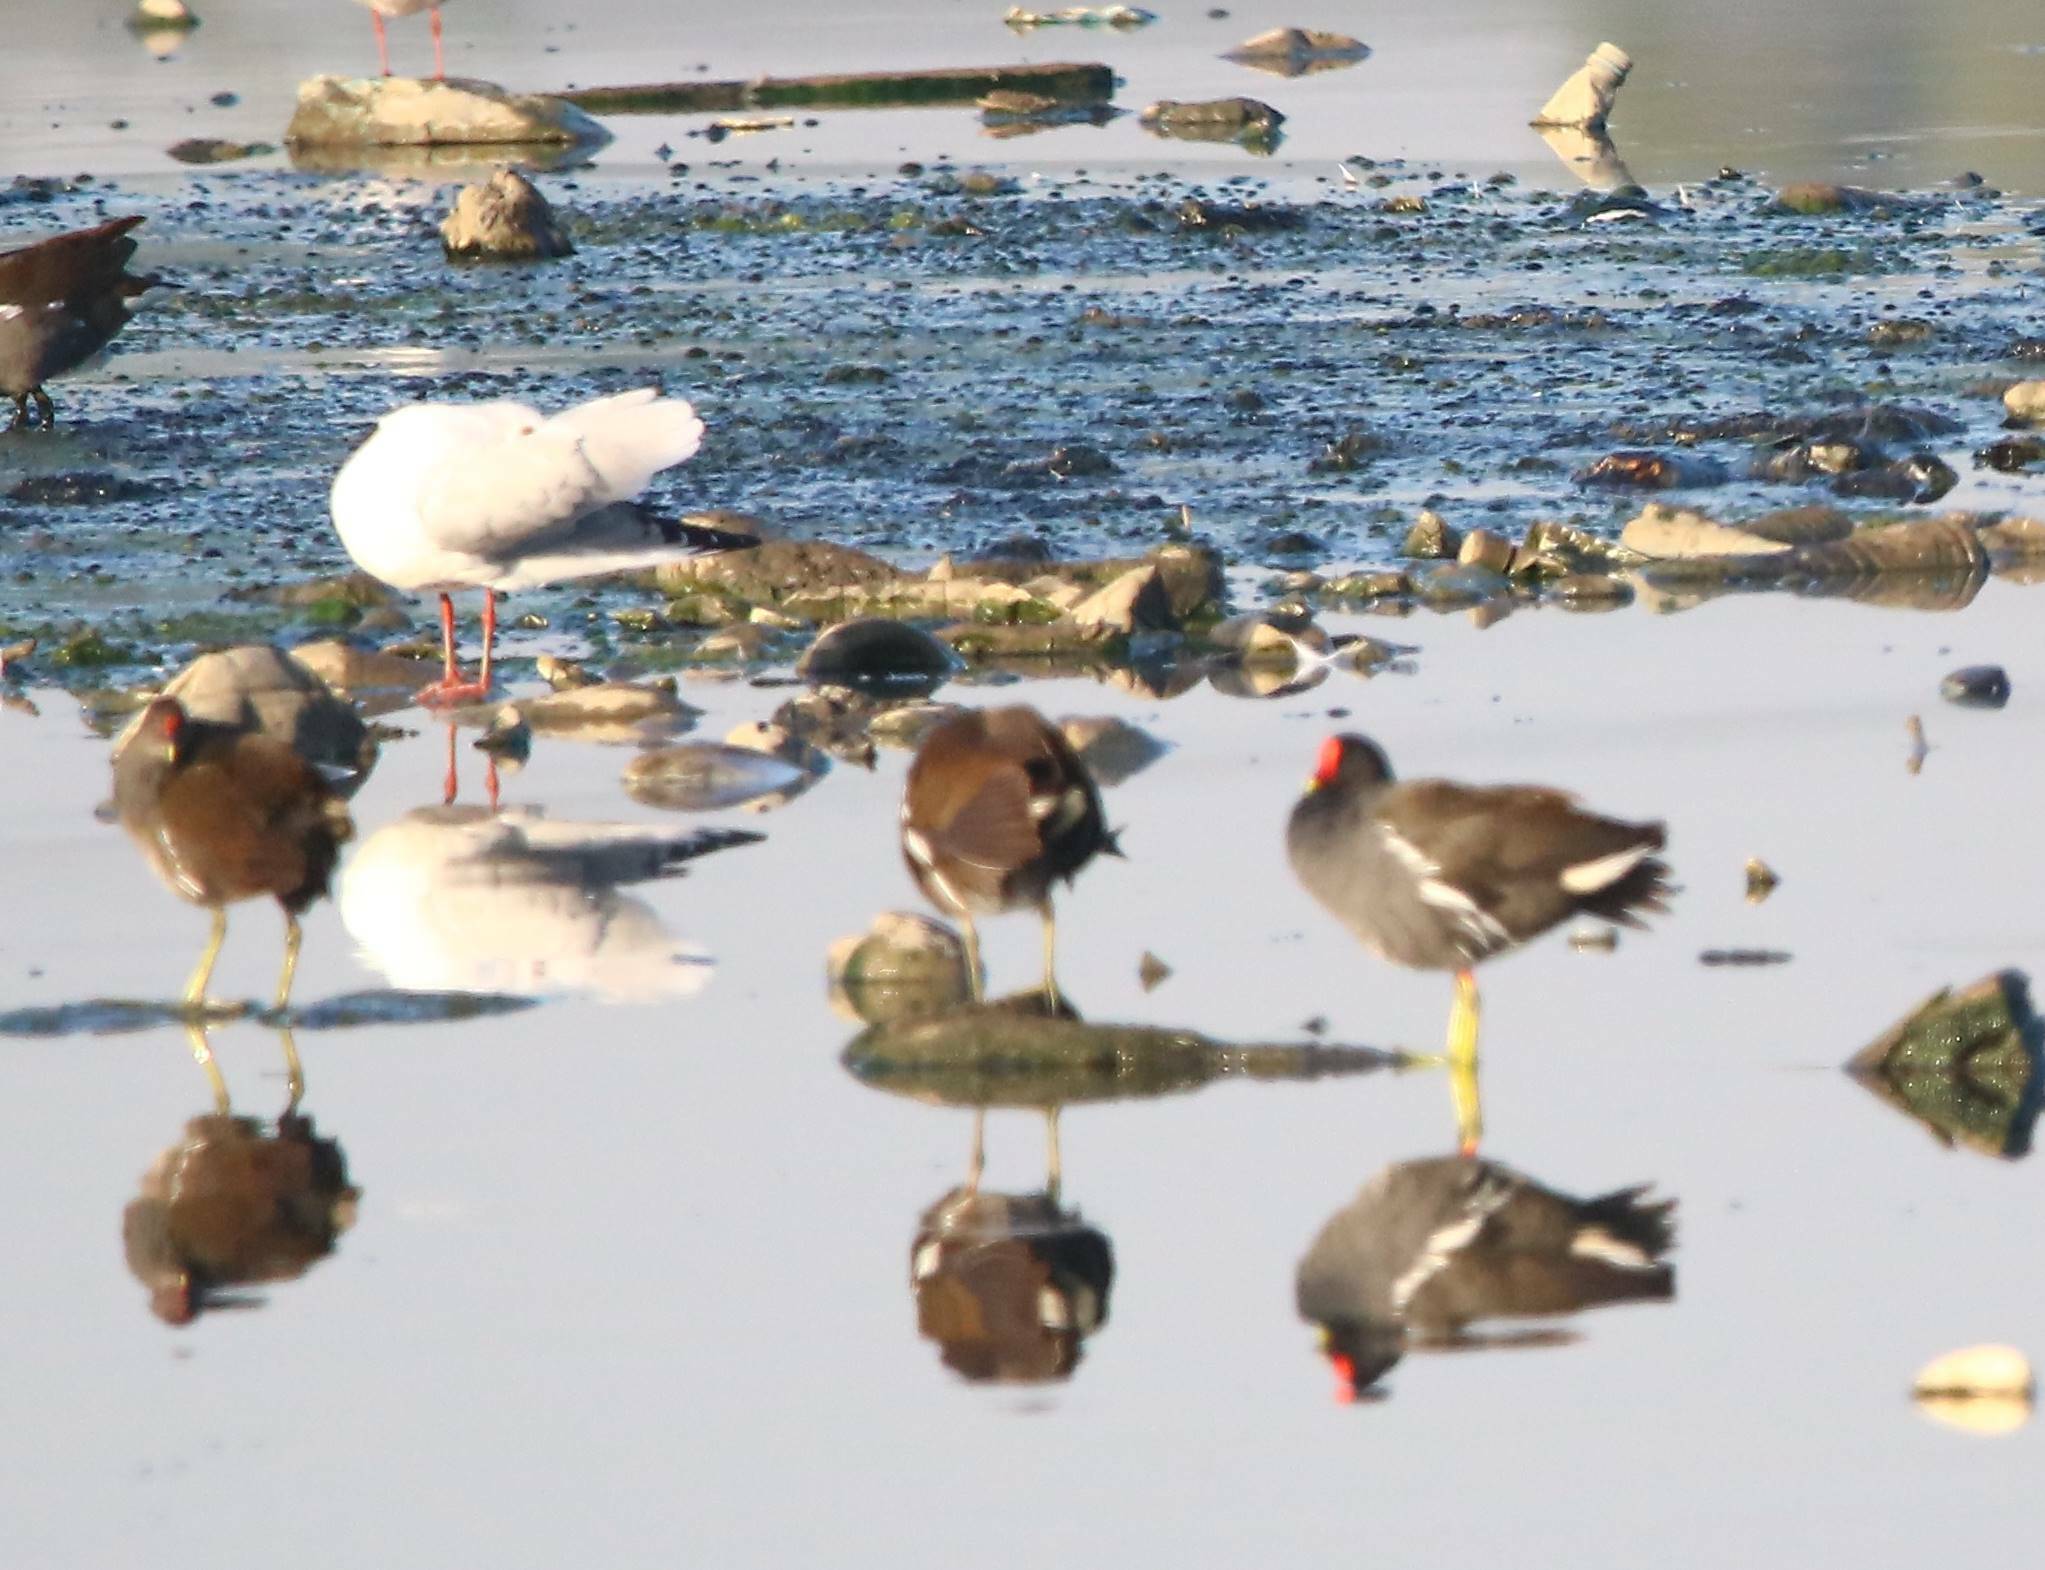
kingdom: Animalia
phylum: Chordata
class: Aves
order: Gruiformes
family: Rallidae
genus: Gallinula
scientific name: Gallinula chloropus
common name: Common moorhen
